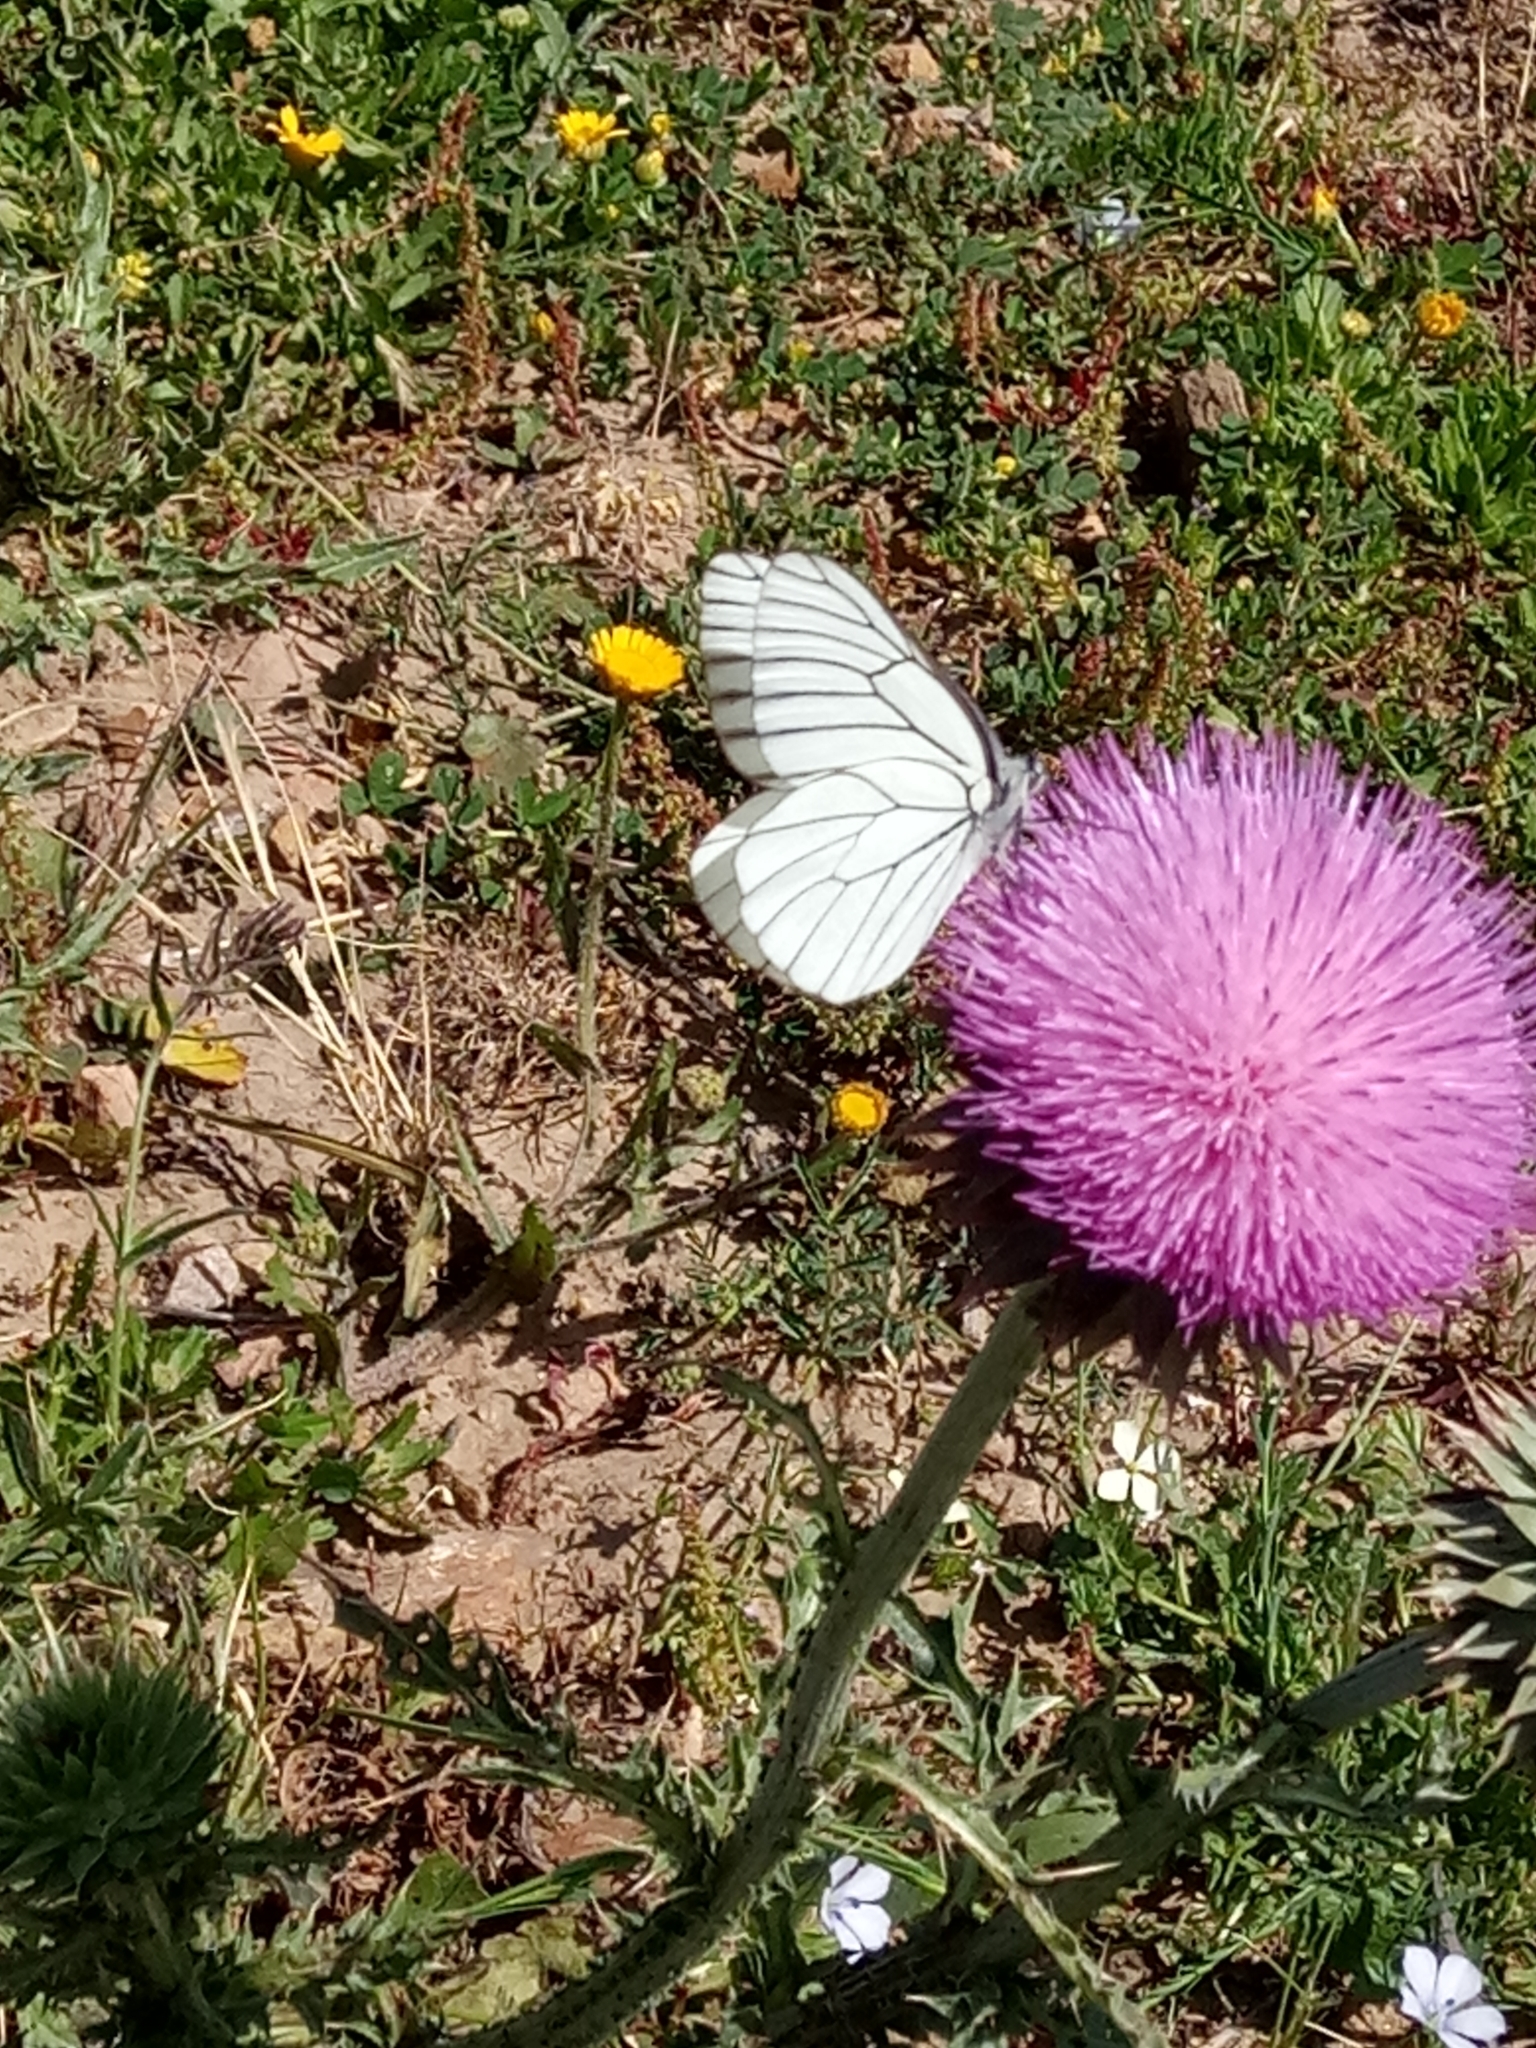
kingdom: Animalia
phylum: Arthropoda
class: Insecta
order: Lepidoptera
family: Pieridae
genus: Aporia
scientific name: Aporia crataegi
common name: Black-veined white
